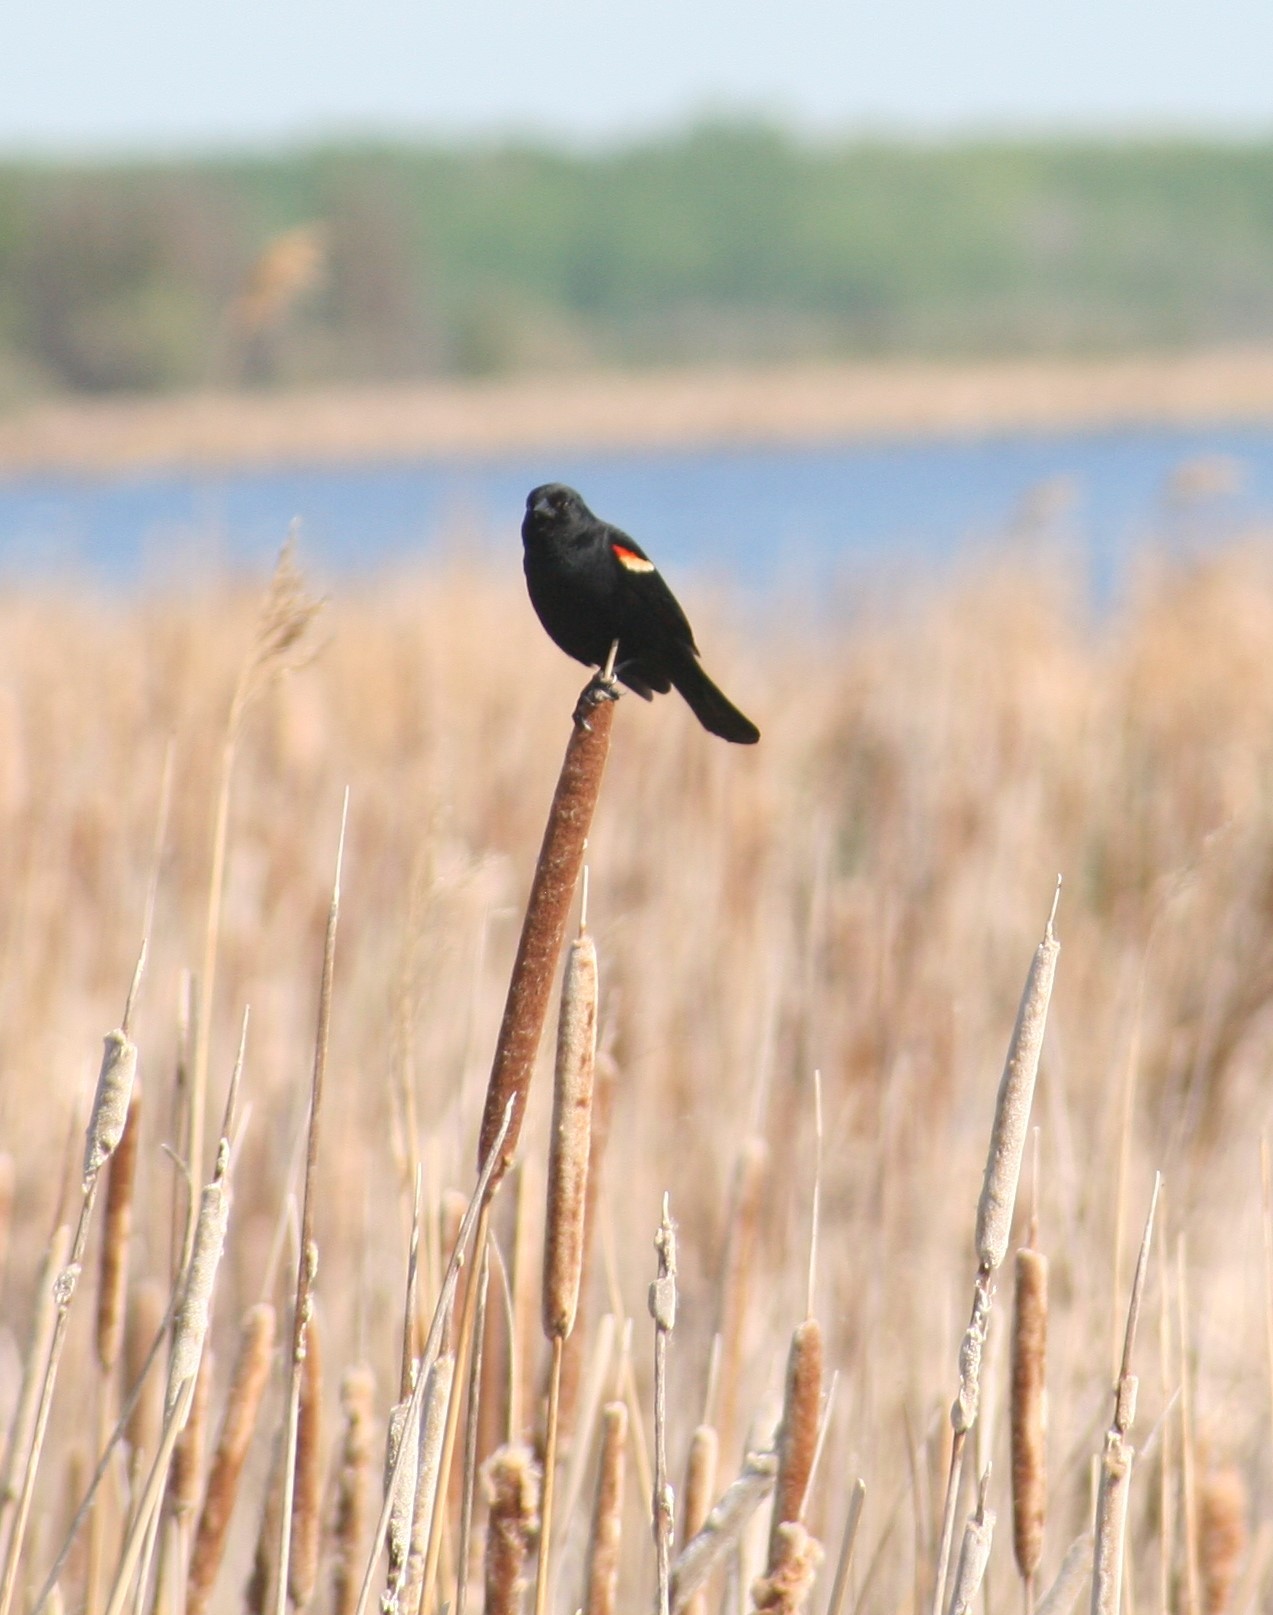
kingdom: Animalia
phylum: Chordata
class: Aves
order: Passeriformes
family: Icteridae
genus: Agelaius
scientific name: Agelaius phoeniceus
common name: Red-winged blackbird
